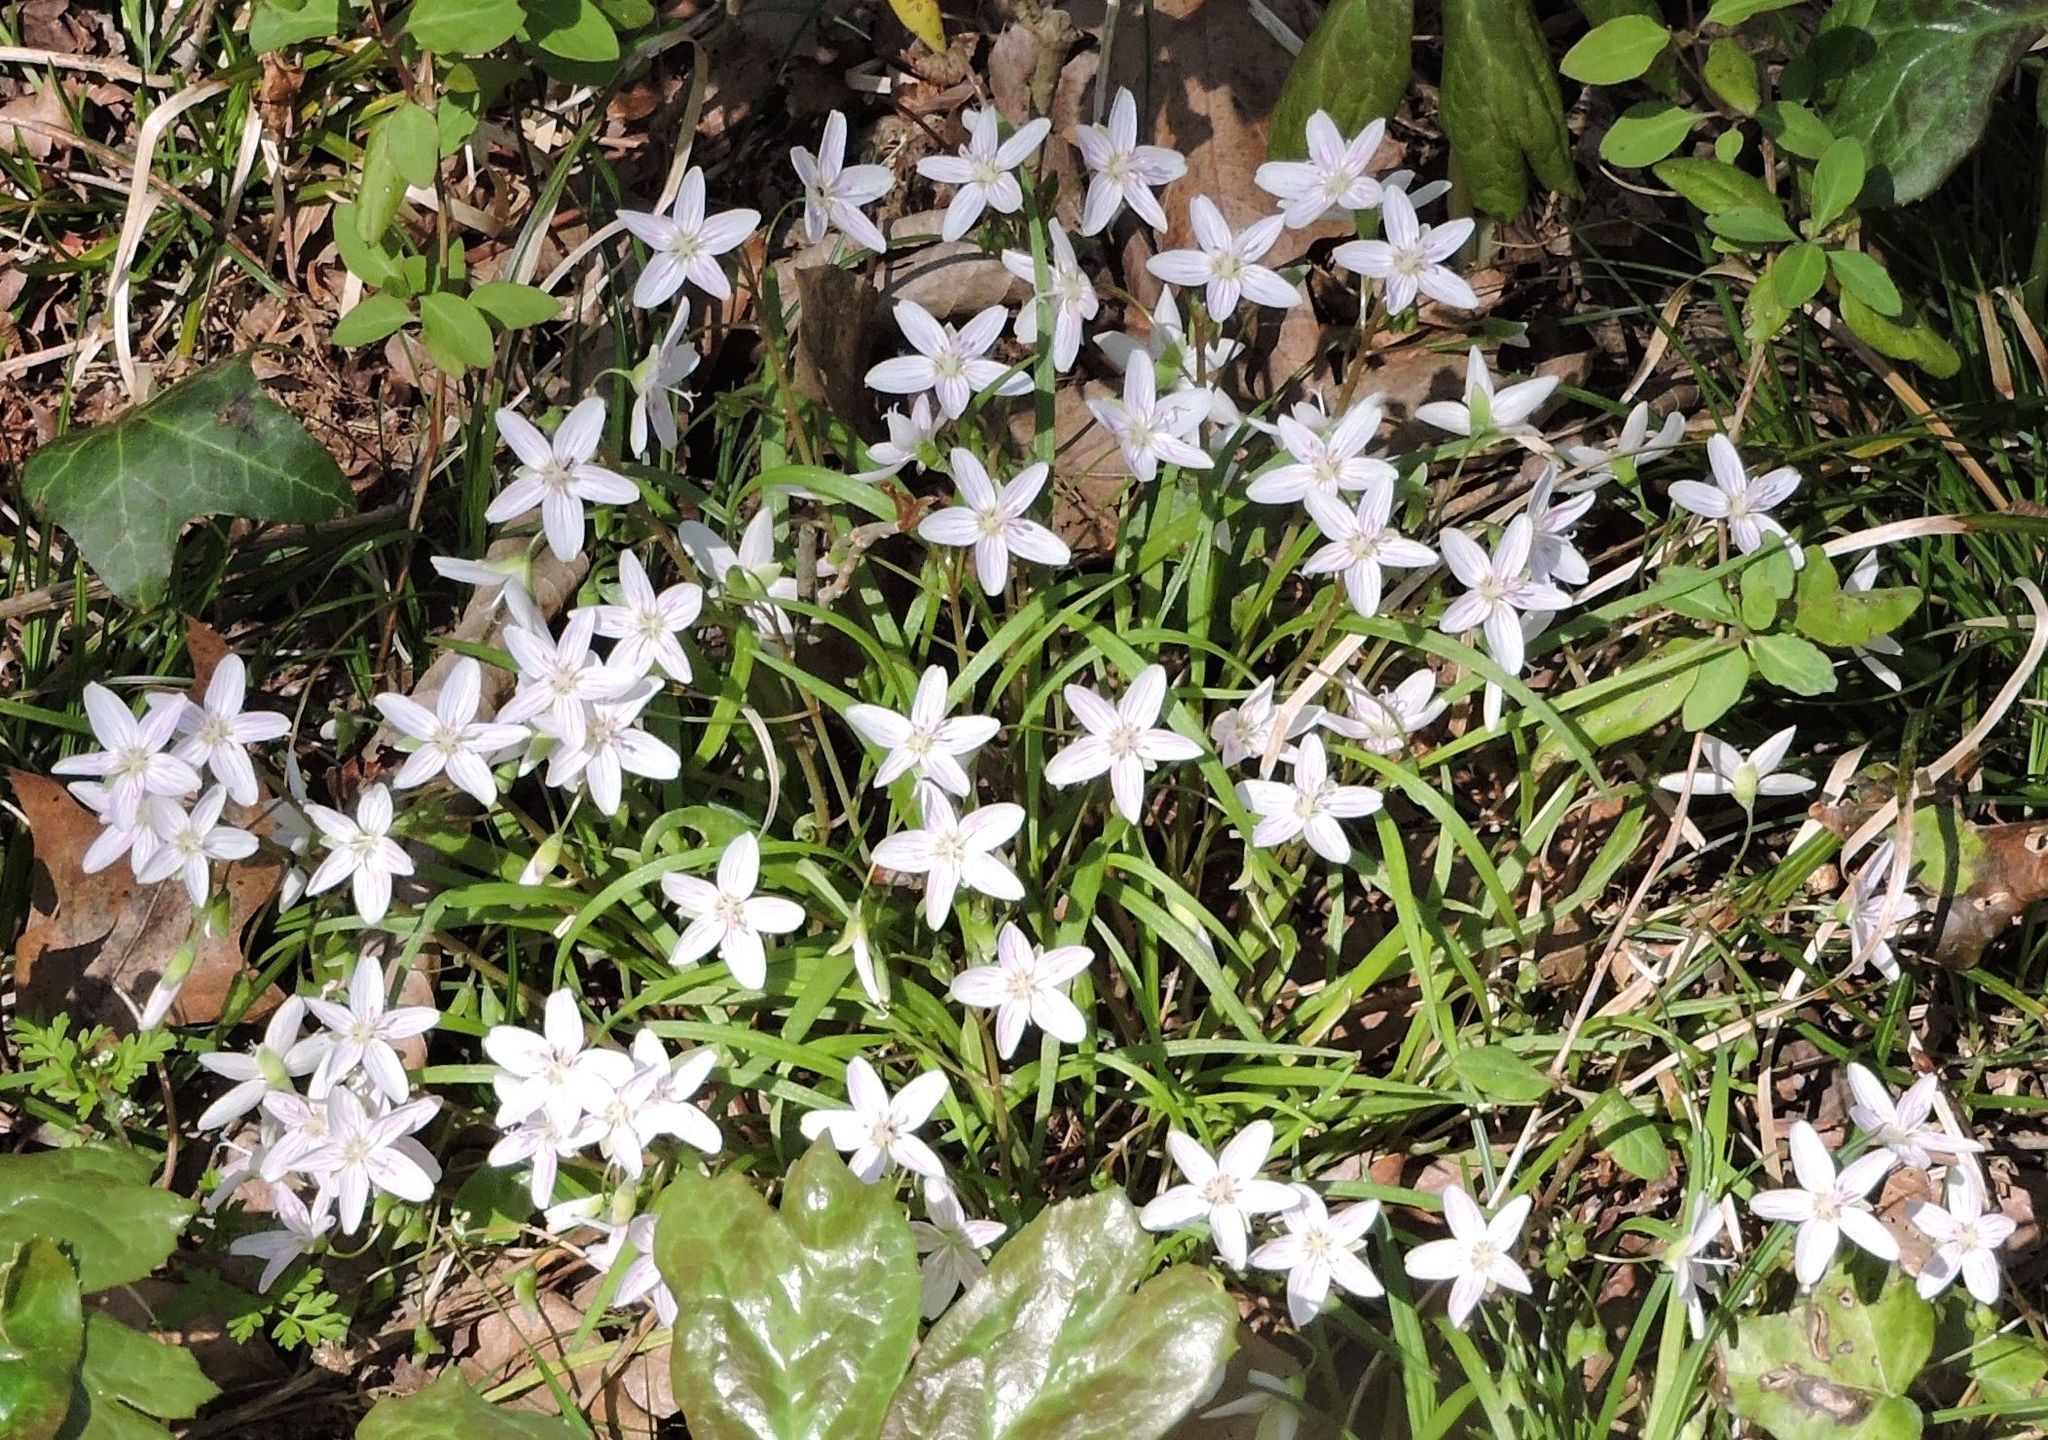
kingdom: Plantae
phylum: Tracheophyta
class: Magnoliopsida
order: Caryophyllales
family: Montiaceae
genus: Claytonia
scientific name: Claytonia virginica
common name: Virginia springbeauty
